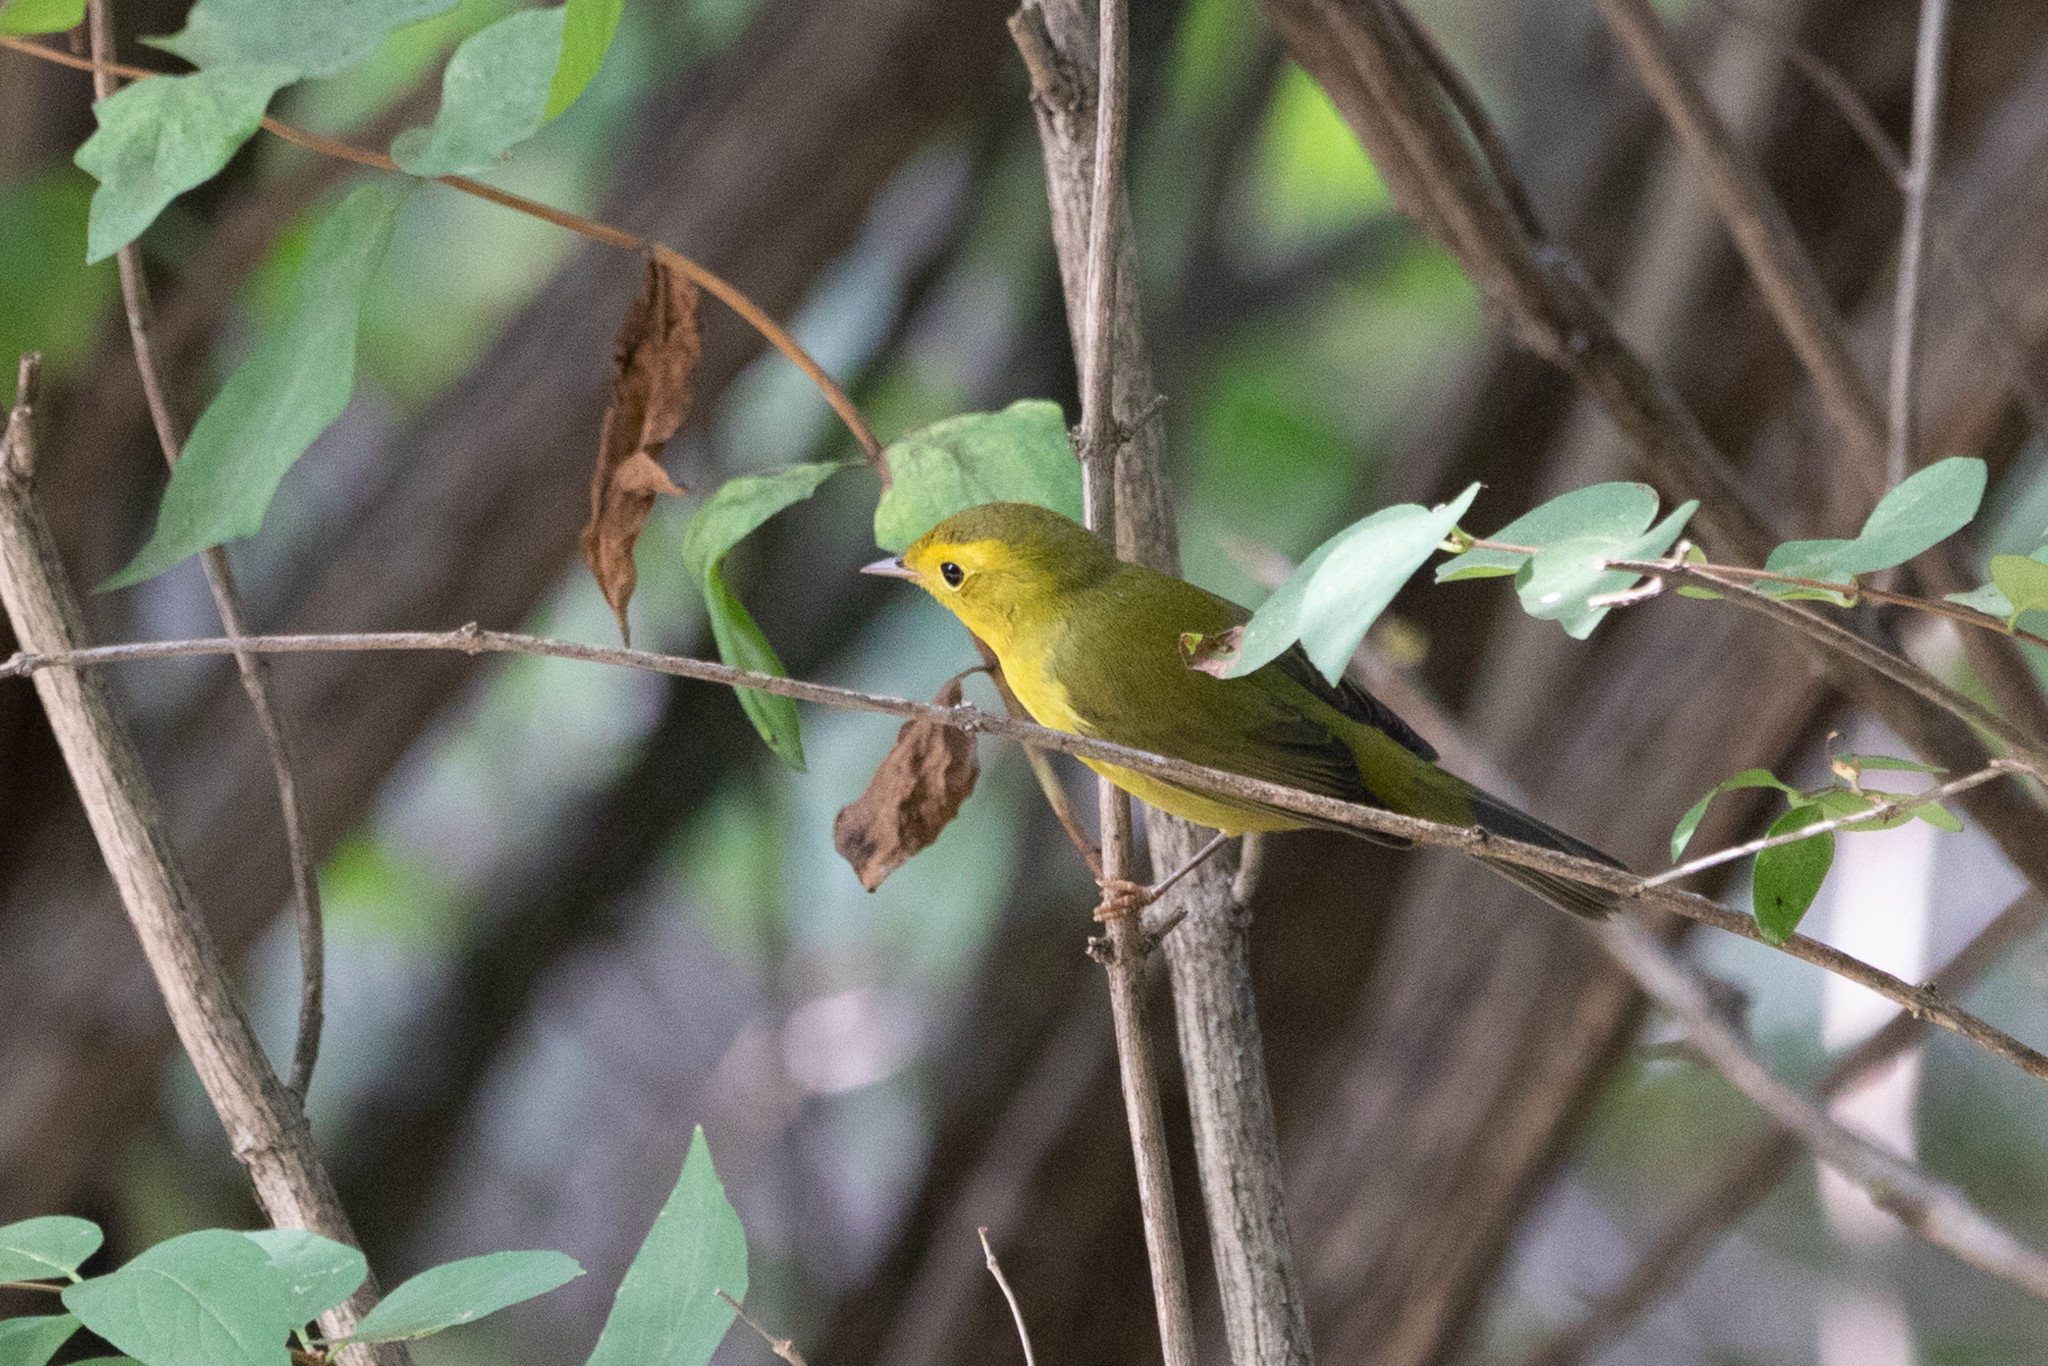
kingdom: Animalia
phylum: Chordata
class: Aves
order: Passeriformes
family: Parulidae
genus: Cardellina
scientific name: Cardellina pusilla
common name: Wilson's warbler
